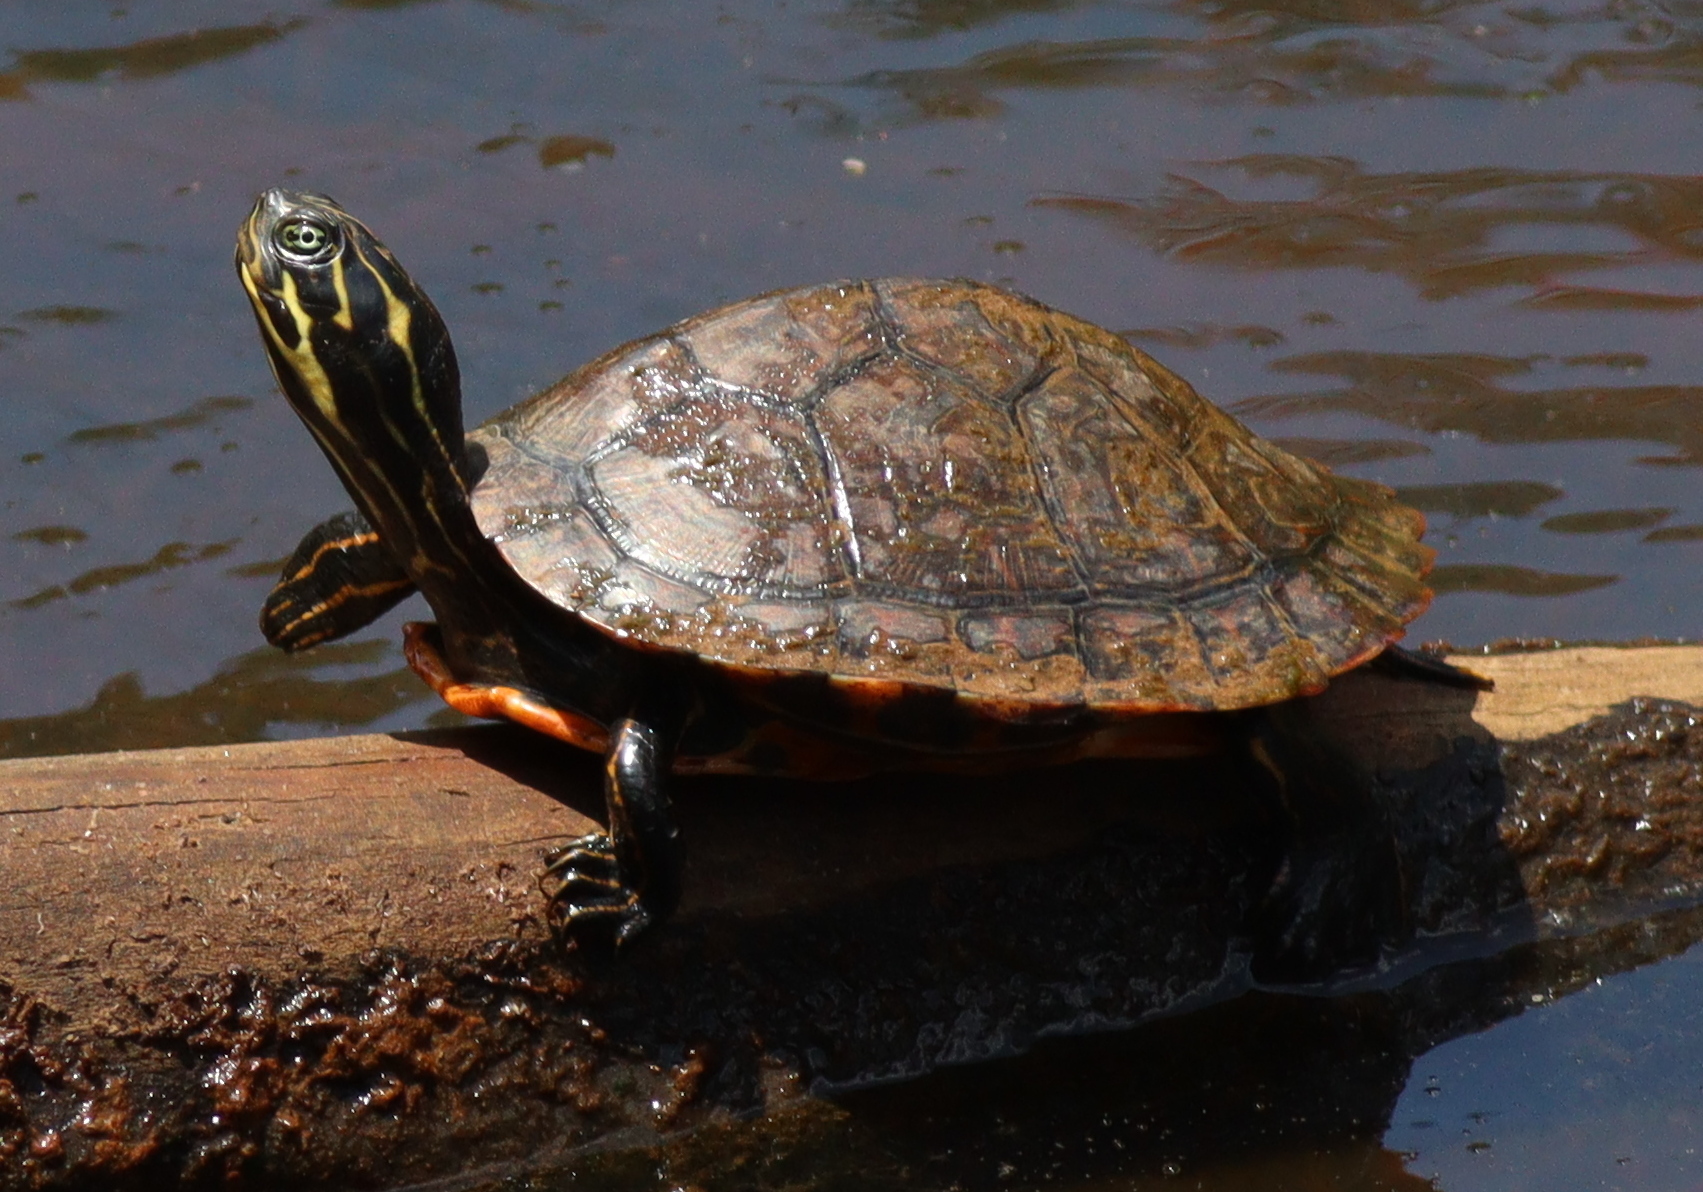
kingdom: Animalia
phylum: Chordata
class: Testudines
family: Emydidae
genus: Pseudemys
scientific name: Pseudemys concinna
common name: Eastern river cooter
